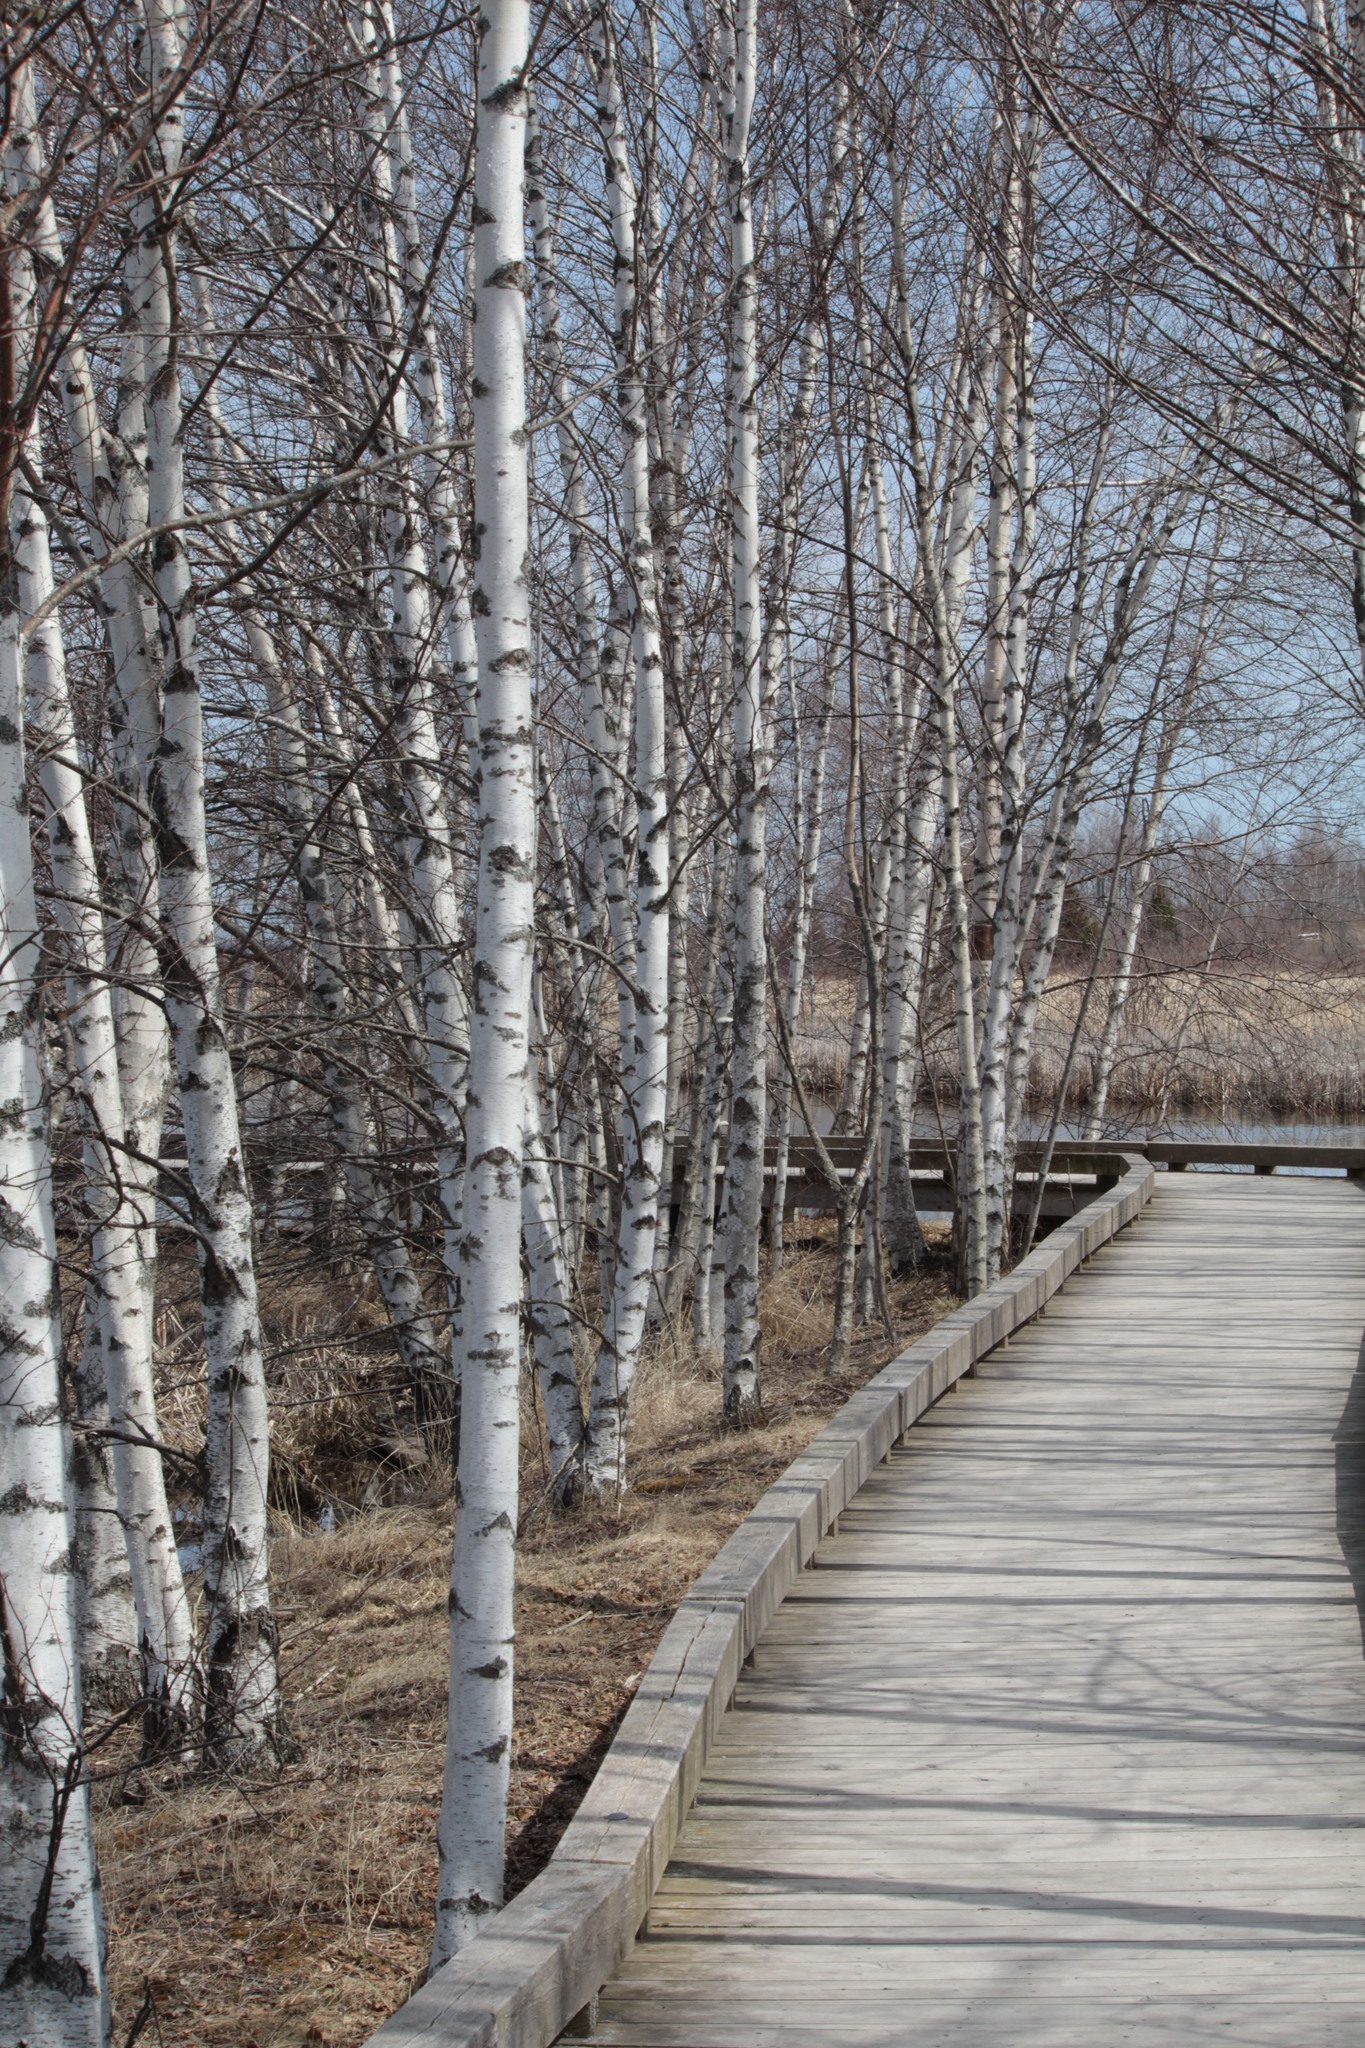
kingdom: Plantae
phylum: Tracheophyta
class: Magnoliopsida
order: Fagales
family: Betulaceae
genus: Betula
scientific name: Betula pendula
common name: Silver birch
